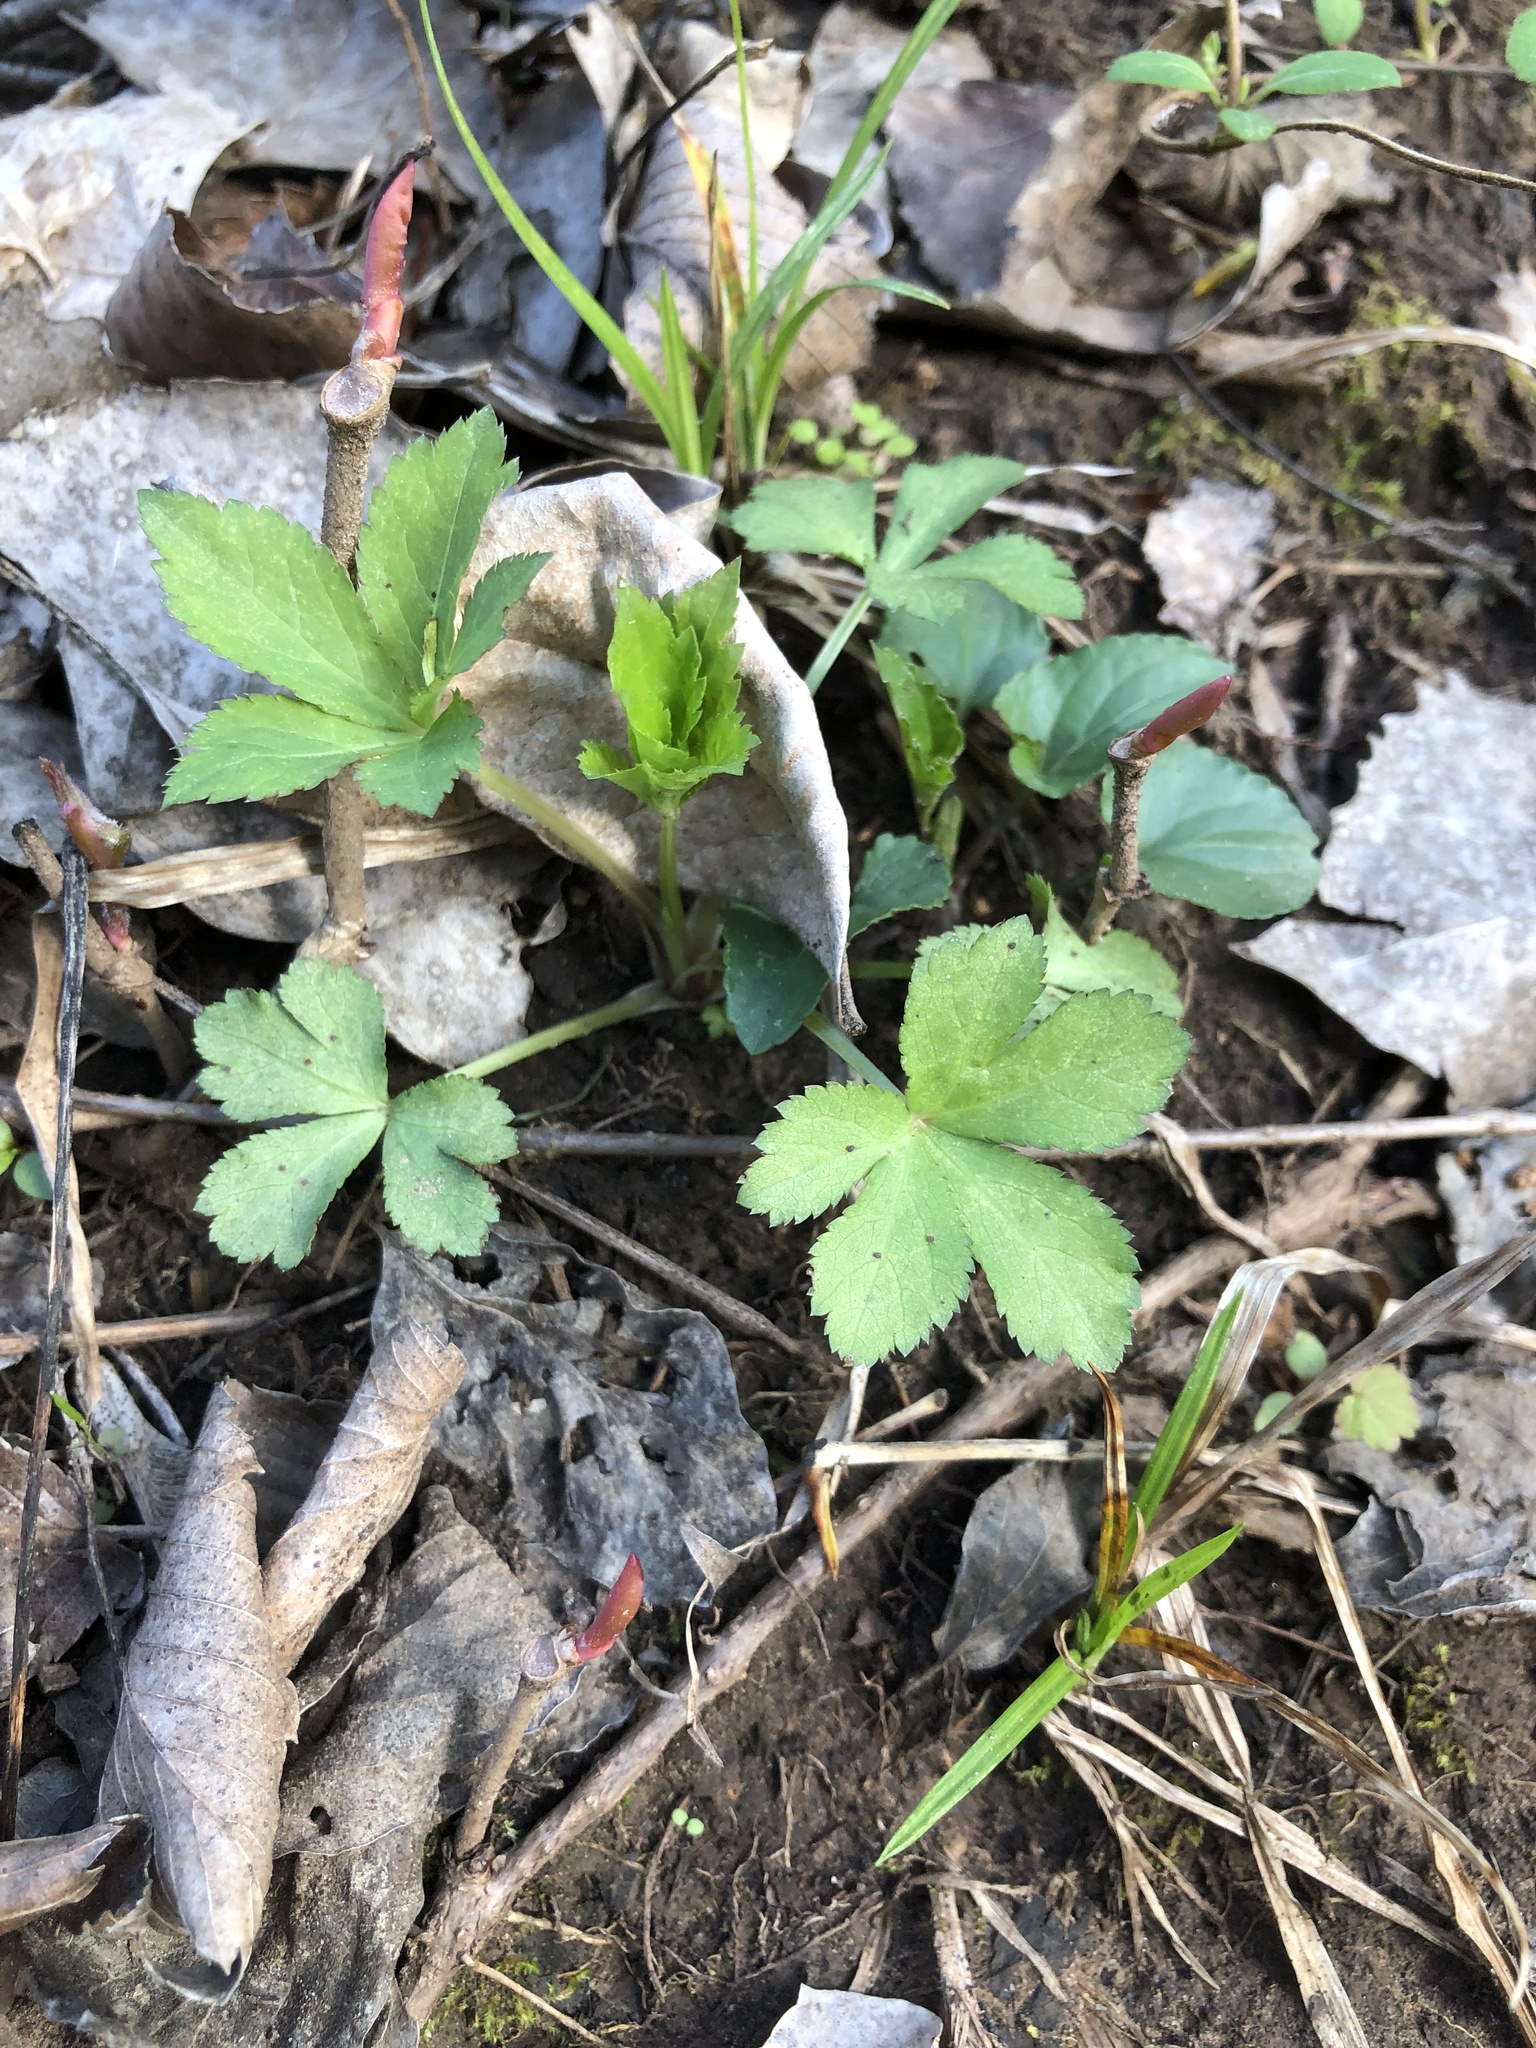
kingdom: Plantae
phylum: Tracheophyta
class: Magnoliopsida
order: Apiales
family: Apiaceae
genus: Sanicula
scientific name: Sanicula canadensis
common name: Canada sanicle
